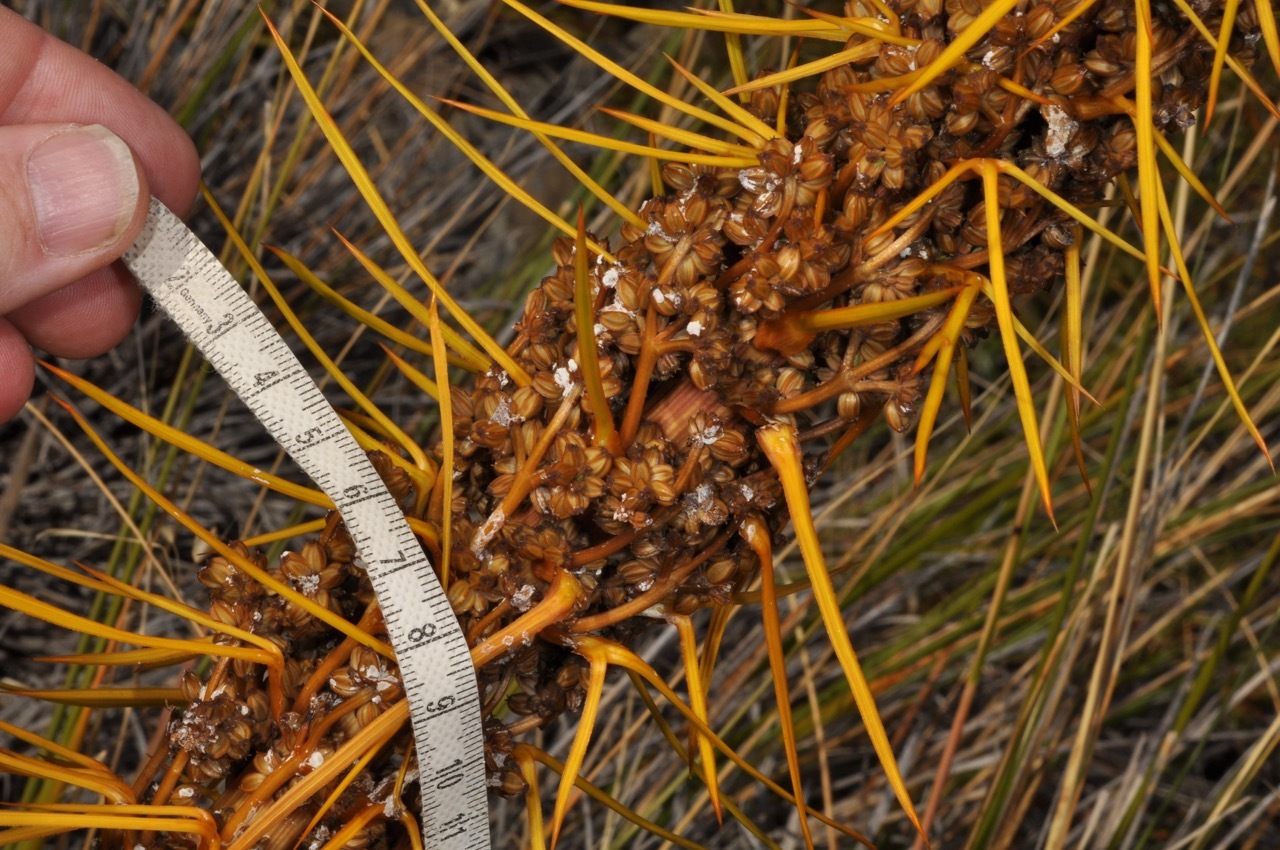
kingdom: Plantae
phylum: Tracheophyta
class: Magnoliopsida
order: Apiales
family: Apiaceae
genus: Aciphylla
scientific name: Aciphylla aurea
